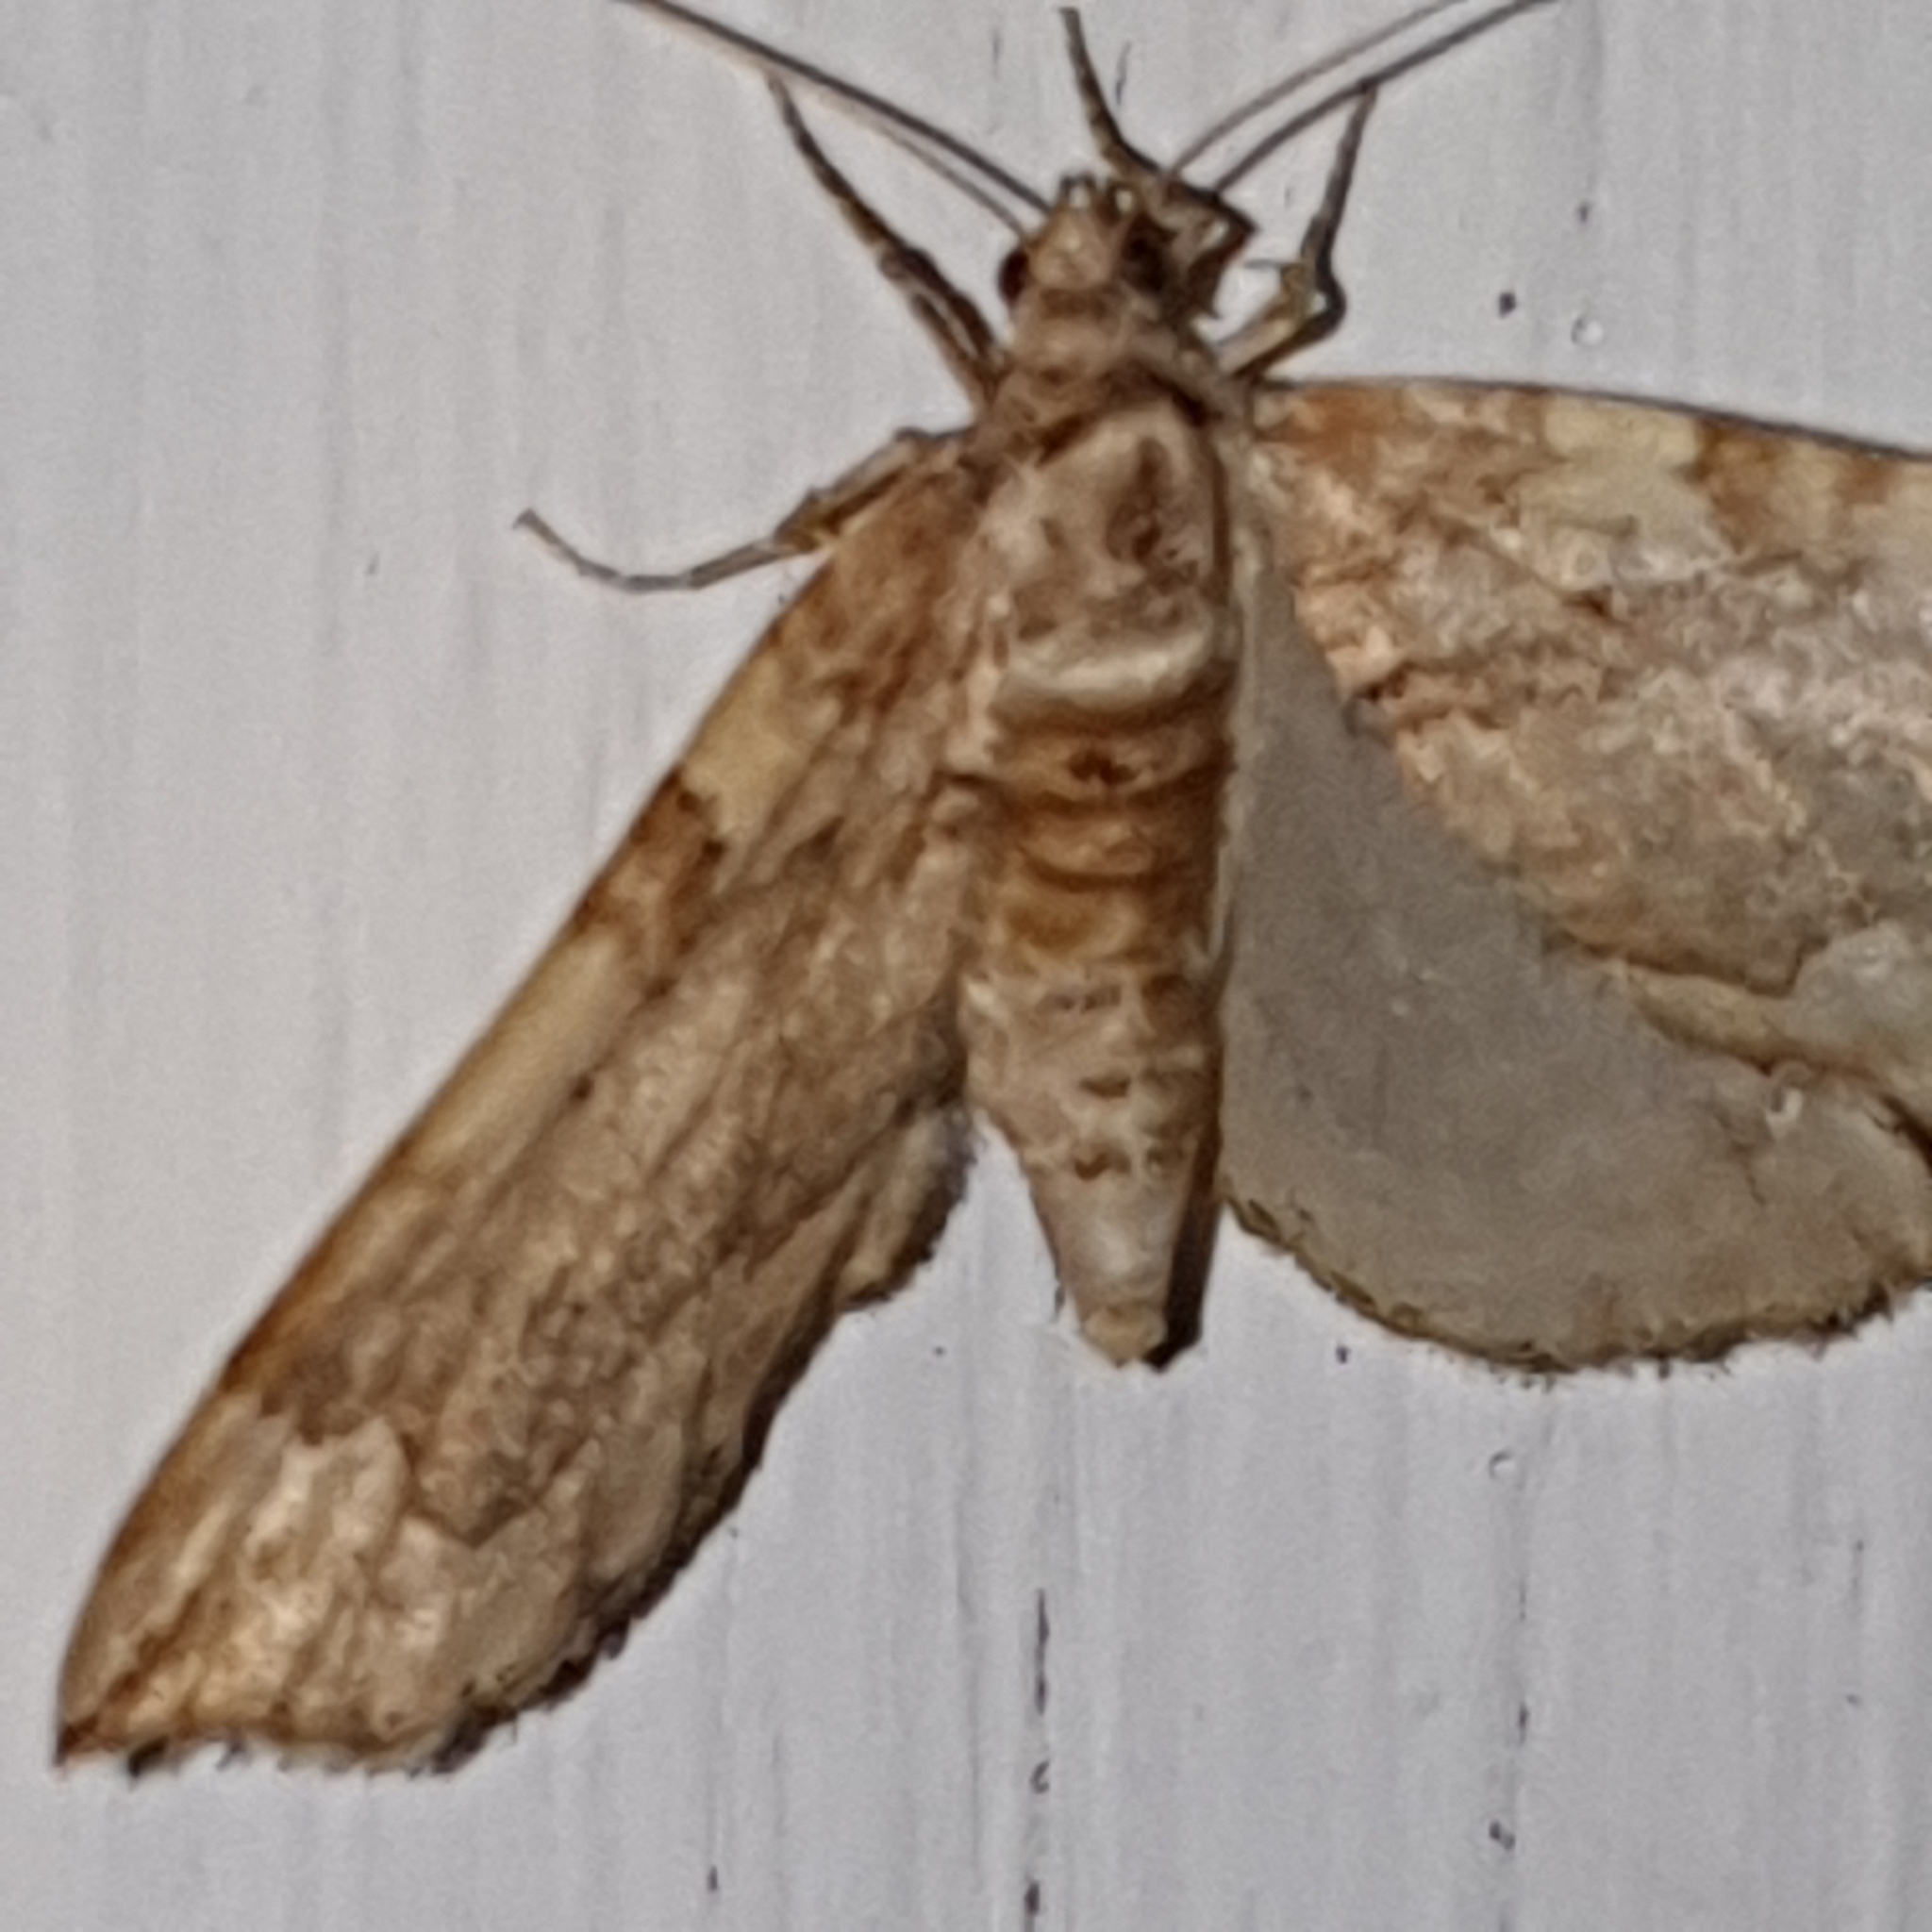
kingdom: Animalia
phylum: Arthropoda
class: Insecta
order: Lepidoptera
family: Geometridae
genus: Pelurga
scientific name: Pelurga comitata
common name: Dark spinach
